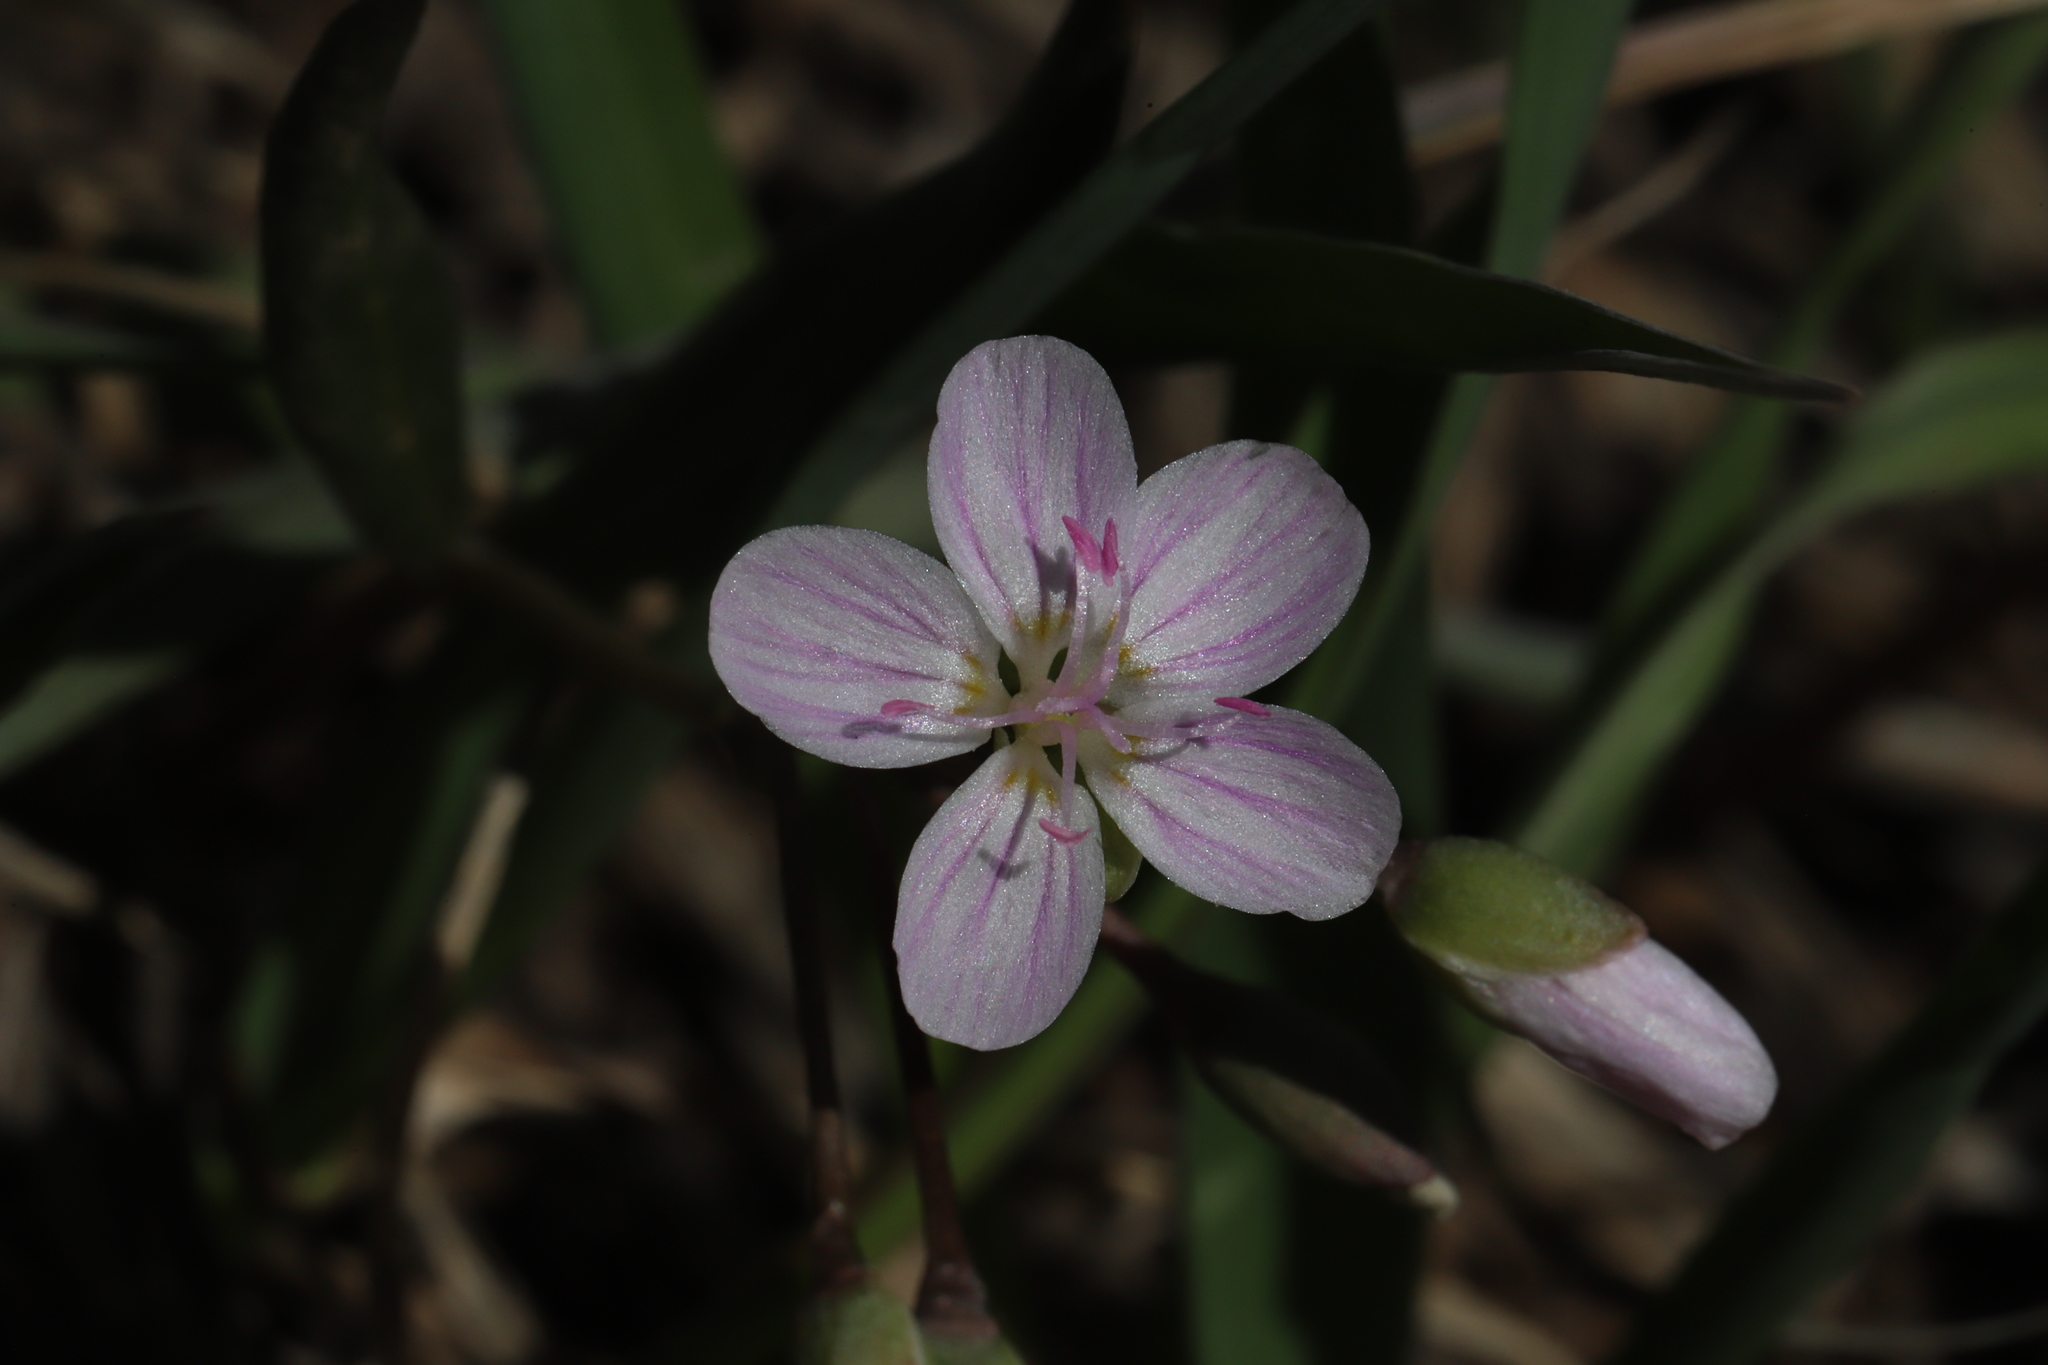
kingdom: Plantae
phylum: Tracheophyta
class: Magnoliopsida
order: Caryophyllales
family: Montiaceae
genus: Claytonia
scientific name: Claytonia rosea
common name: Rocky mountain spring-beauty
